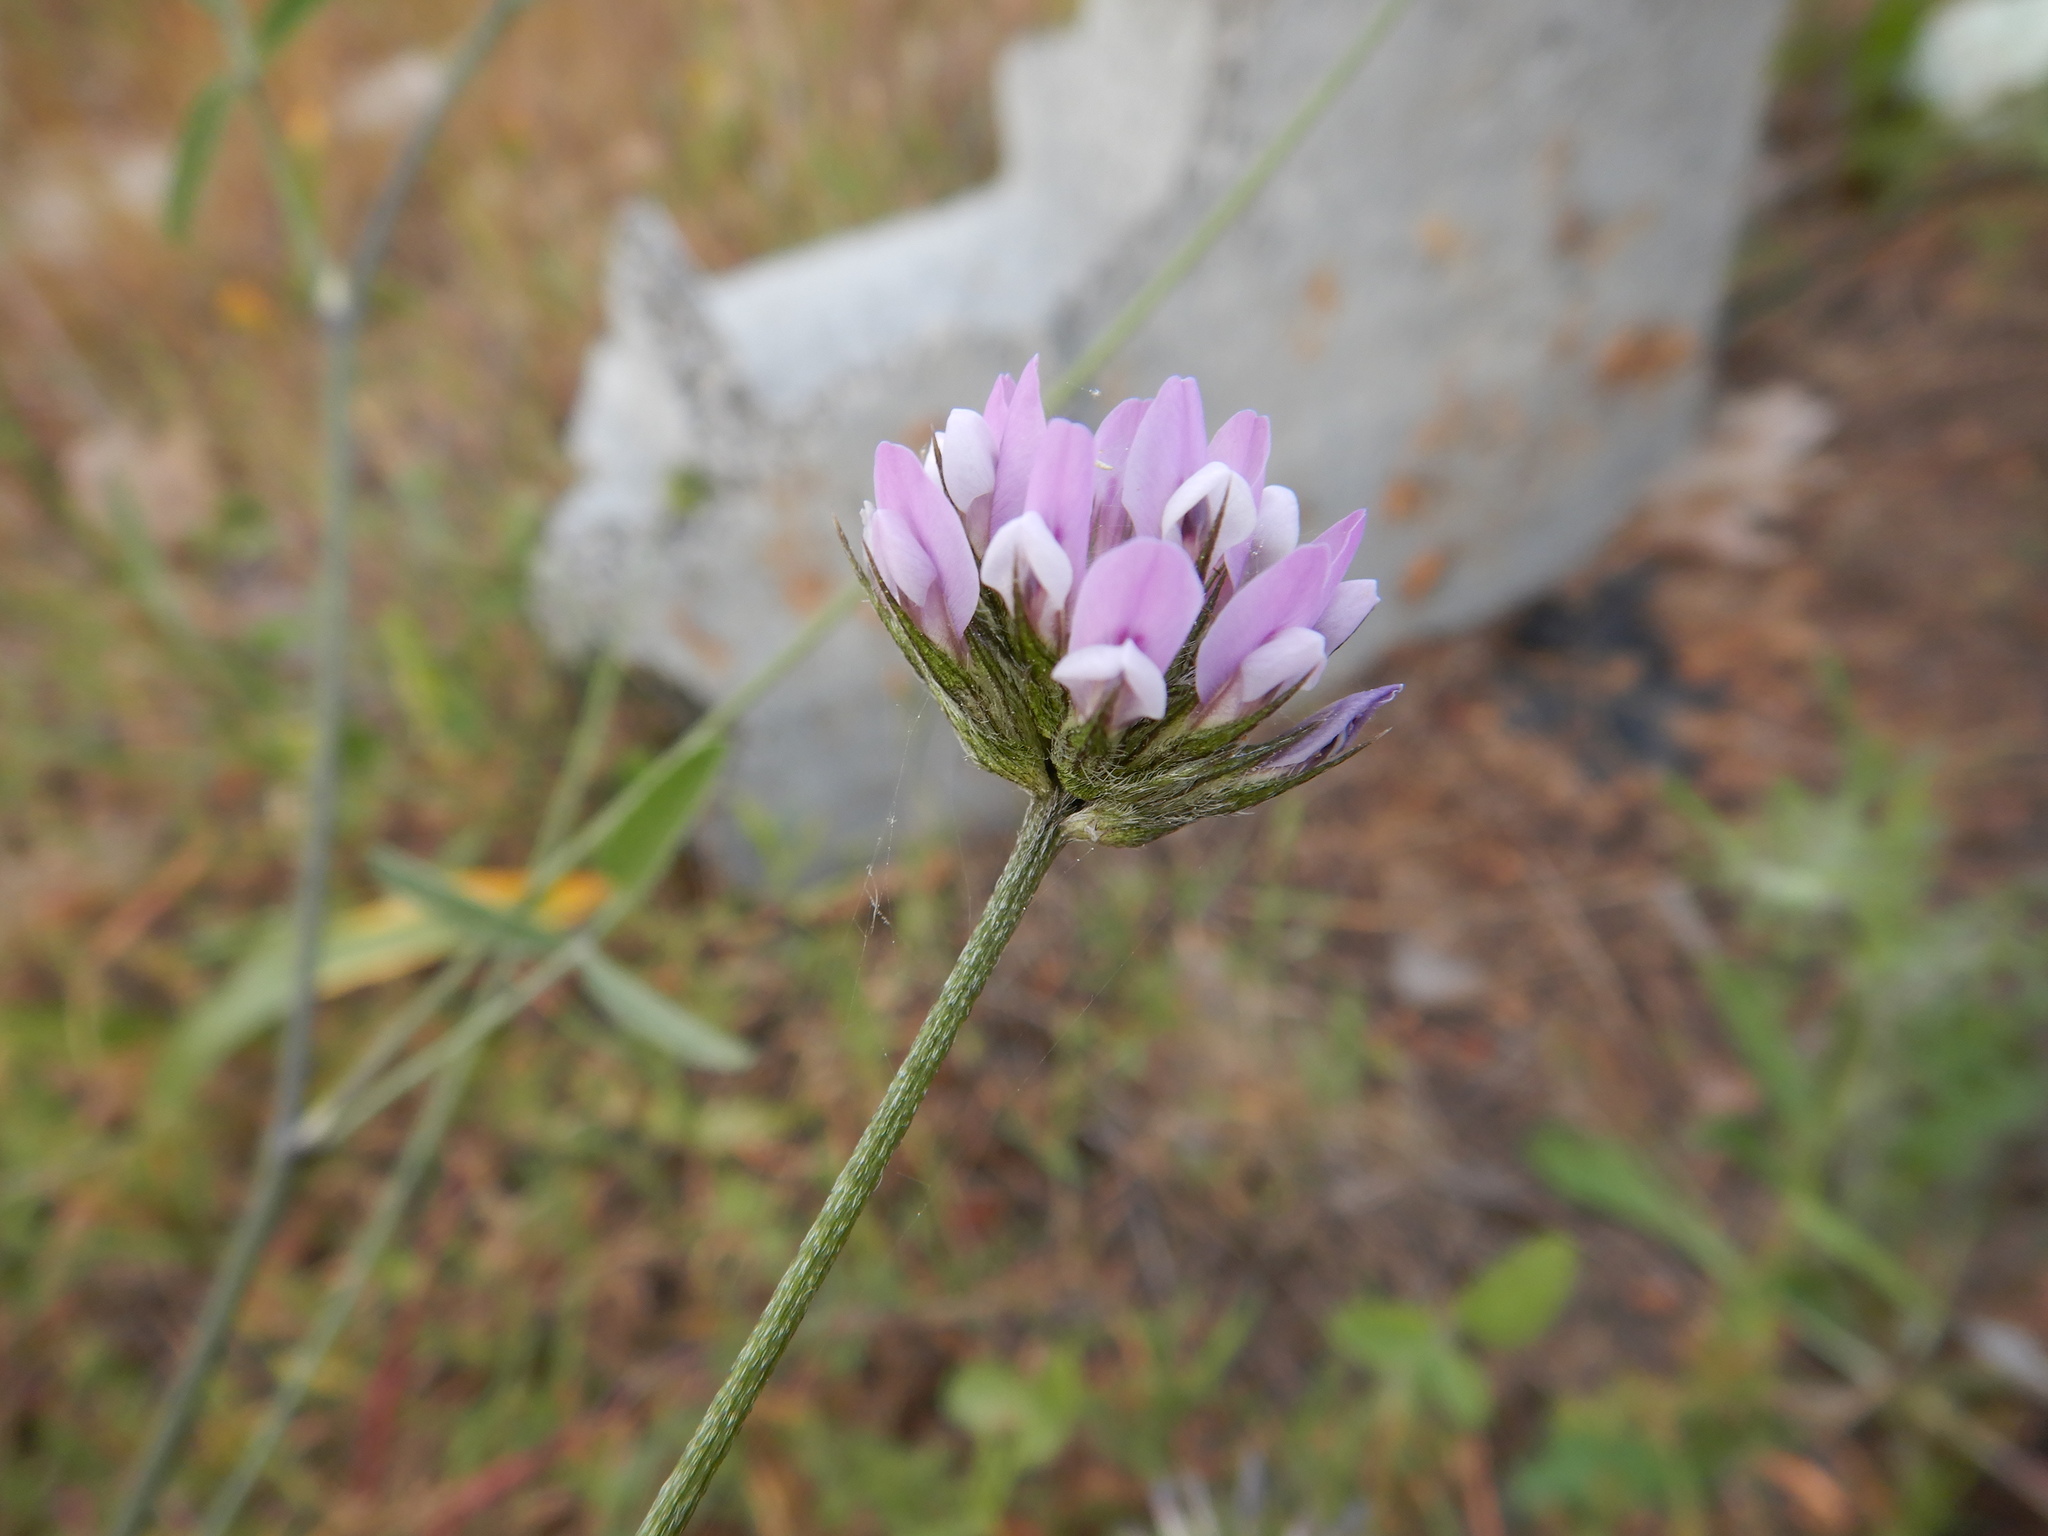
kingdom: Plantae
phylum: Tracheophyta
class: Magnoliopsida
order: Fabales
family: Fabaceae
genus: Bituminaria
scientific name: Bituminaria bituminosa
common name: Arabian pea
